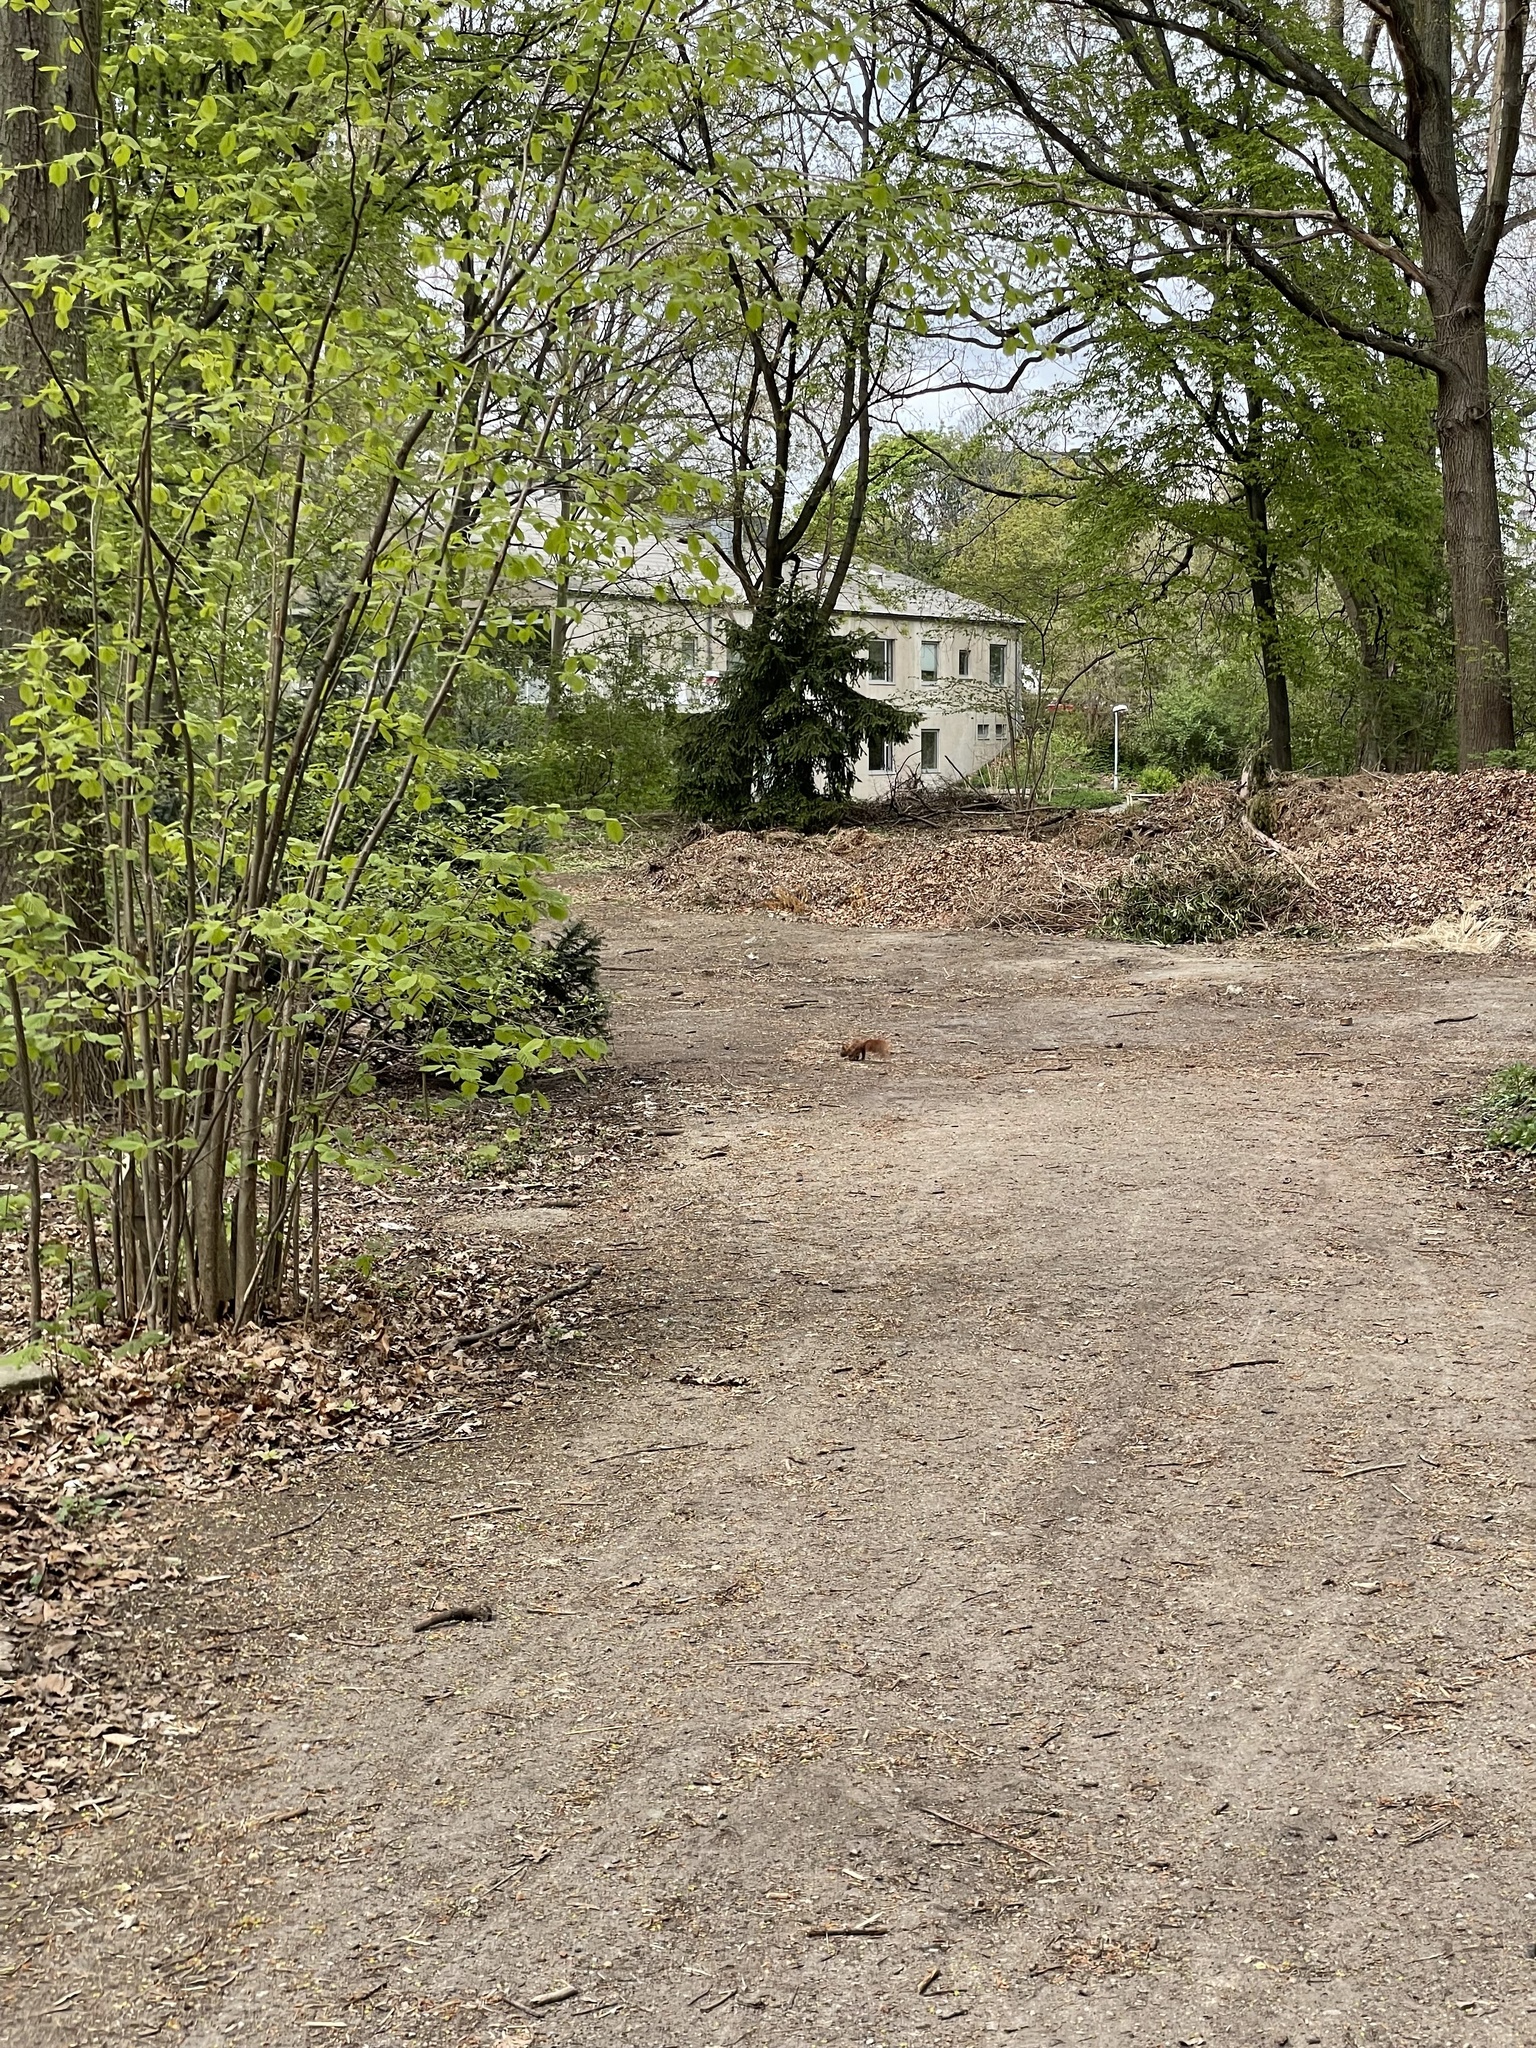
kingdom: Animalia
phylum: Chordata
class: Mammalia
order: Rodentia
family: Sciuridae
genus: Sciurus
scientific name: Sciurus vulgaris
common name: Eurasian red squirrel
